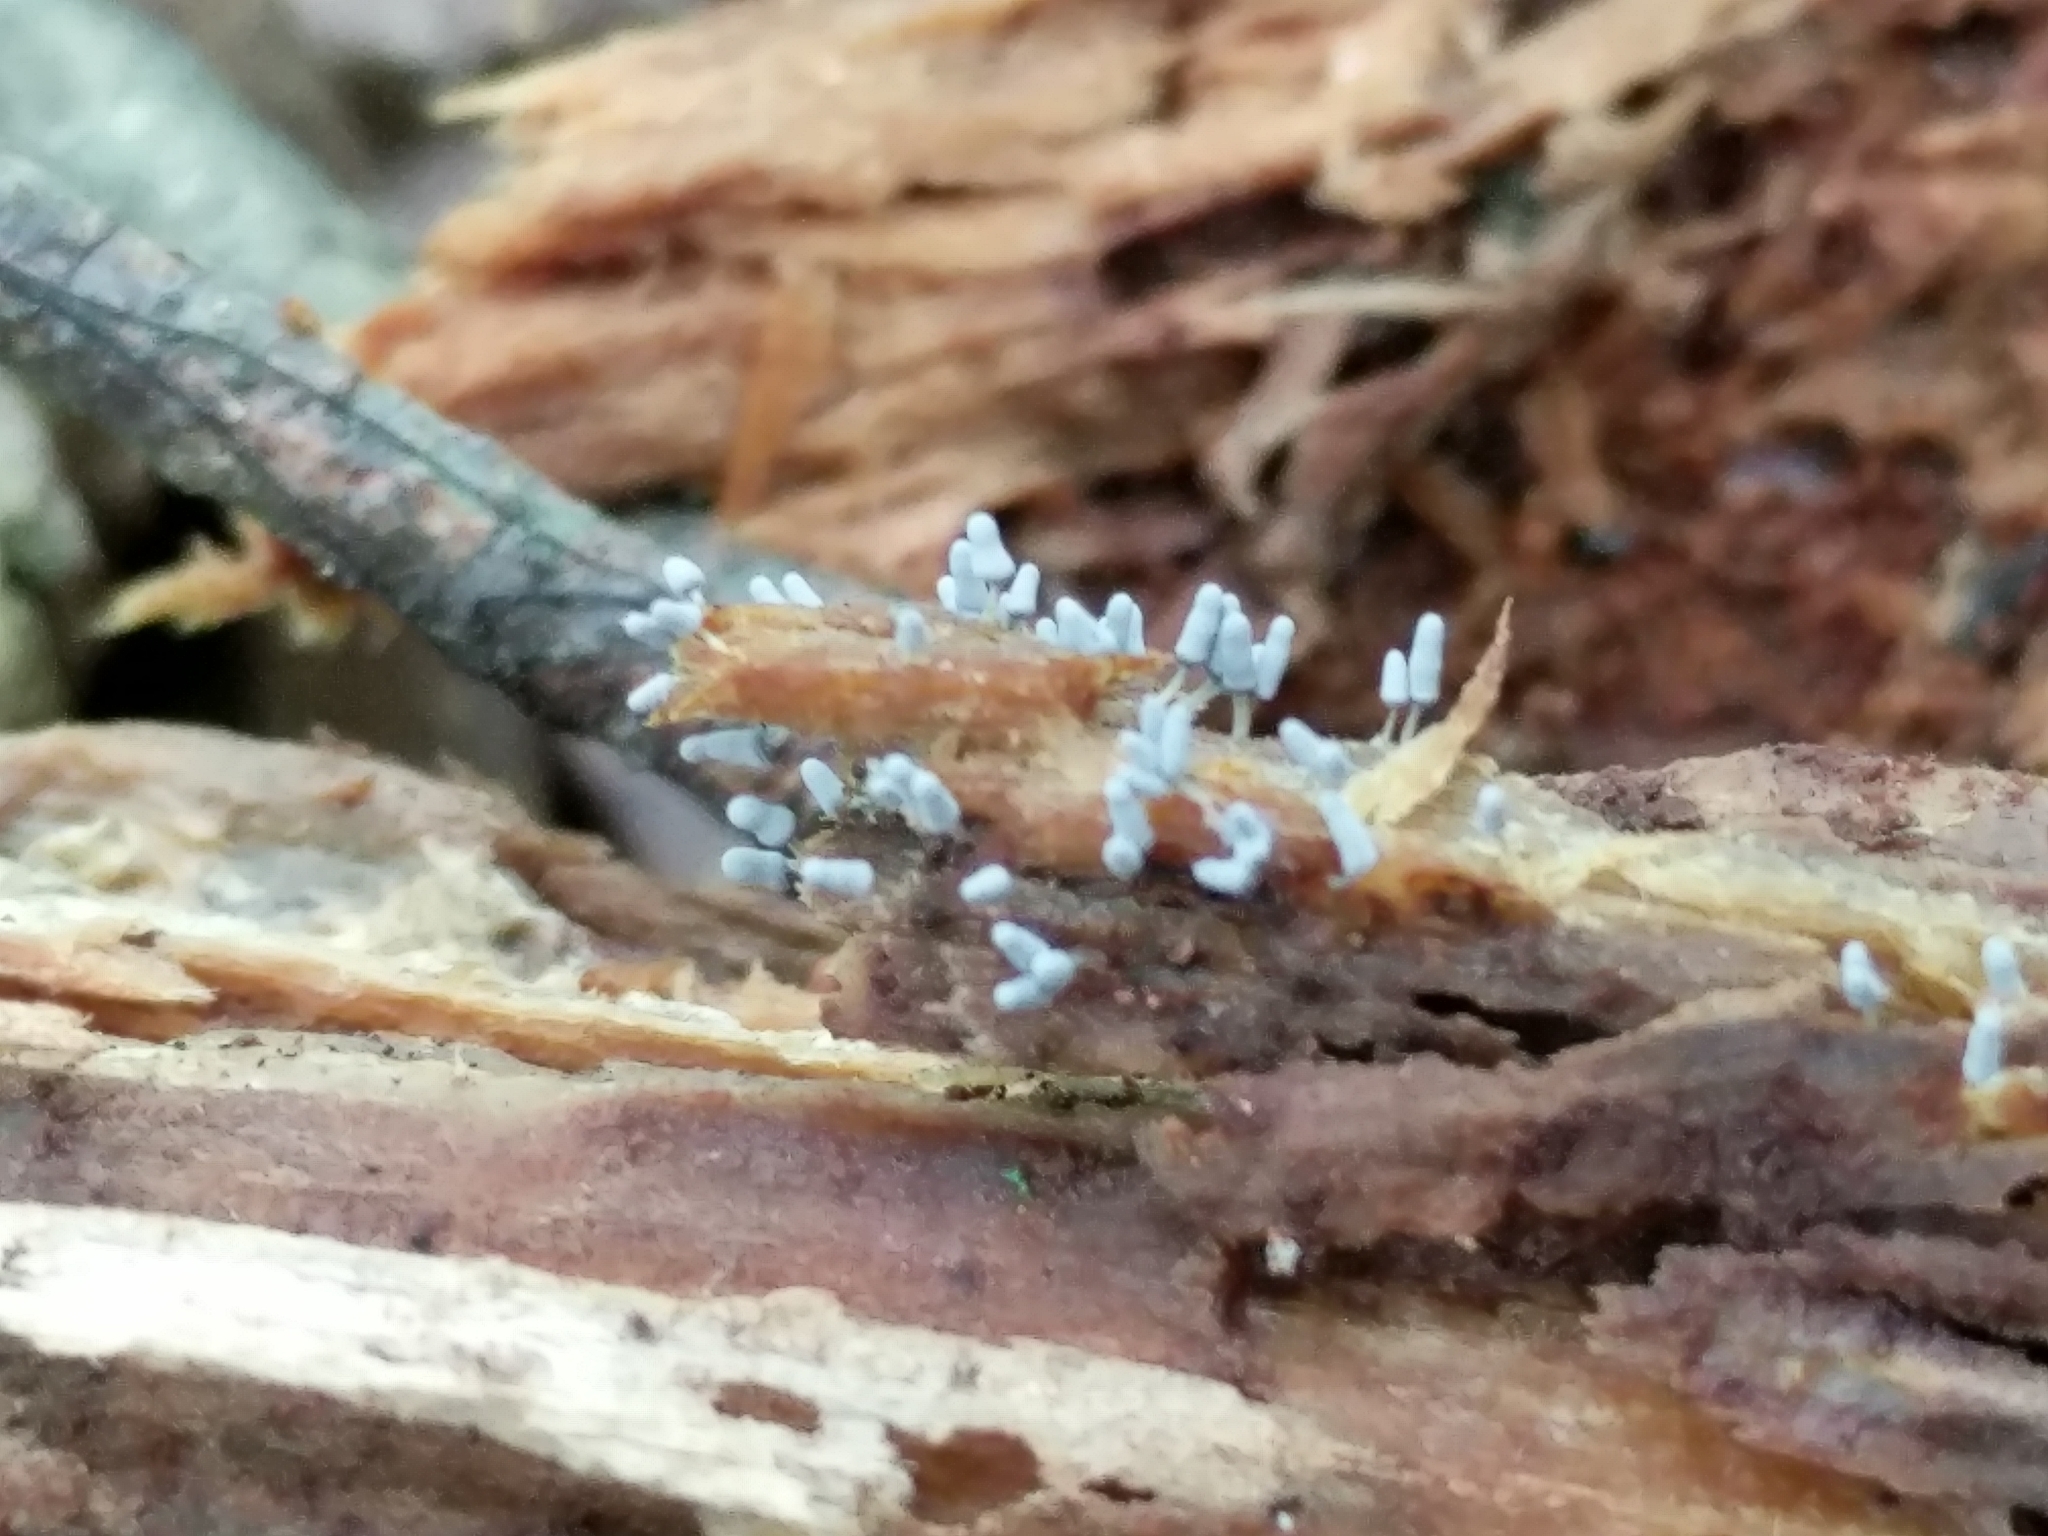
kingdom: Protozoa
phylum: Mycetozoa
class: Myxomycetes
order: Trichiales
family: Arcyriaceae
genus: Arcyria
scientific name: Arcyria cinerea
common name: White carnival candy slime mold
